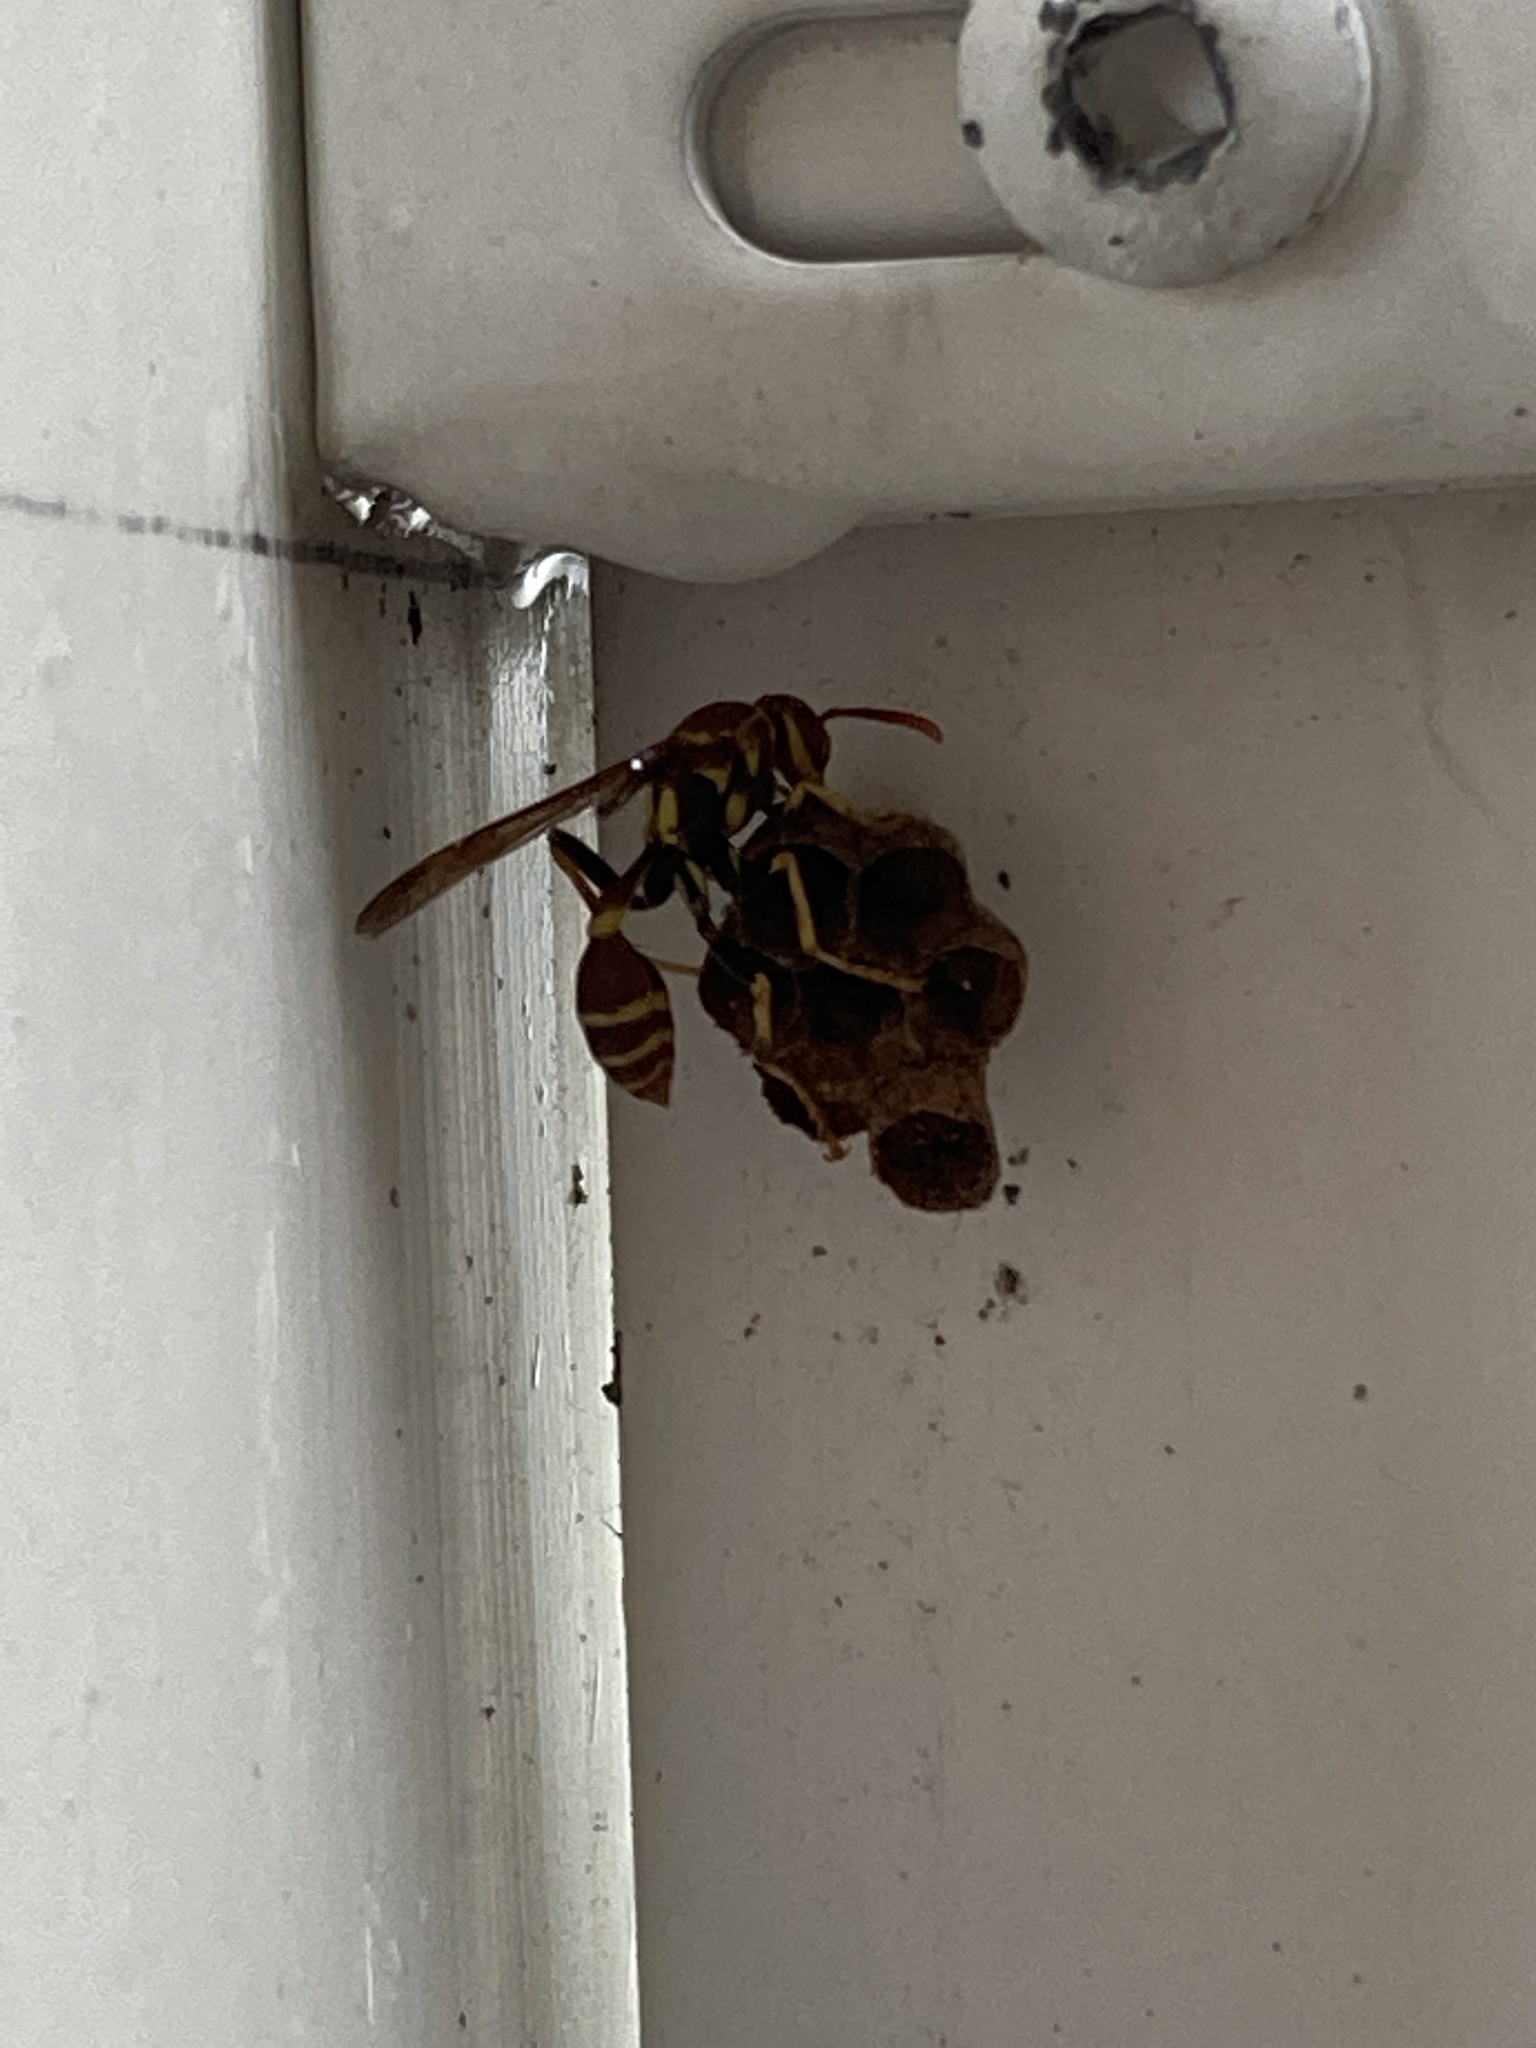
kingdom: Animalia
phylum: Arthropoda
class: Insecta
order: Hymenoptera
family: Vespidae
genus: Mischocyttarus
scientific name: Mischocyttarus mexicanus
